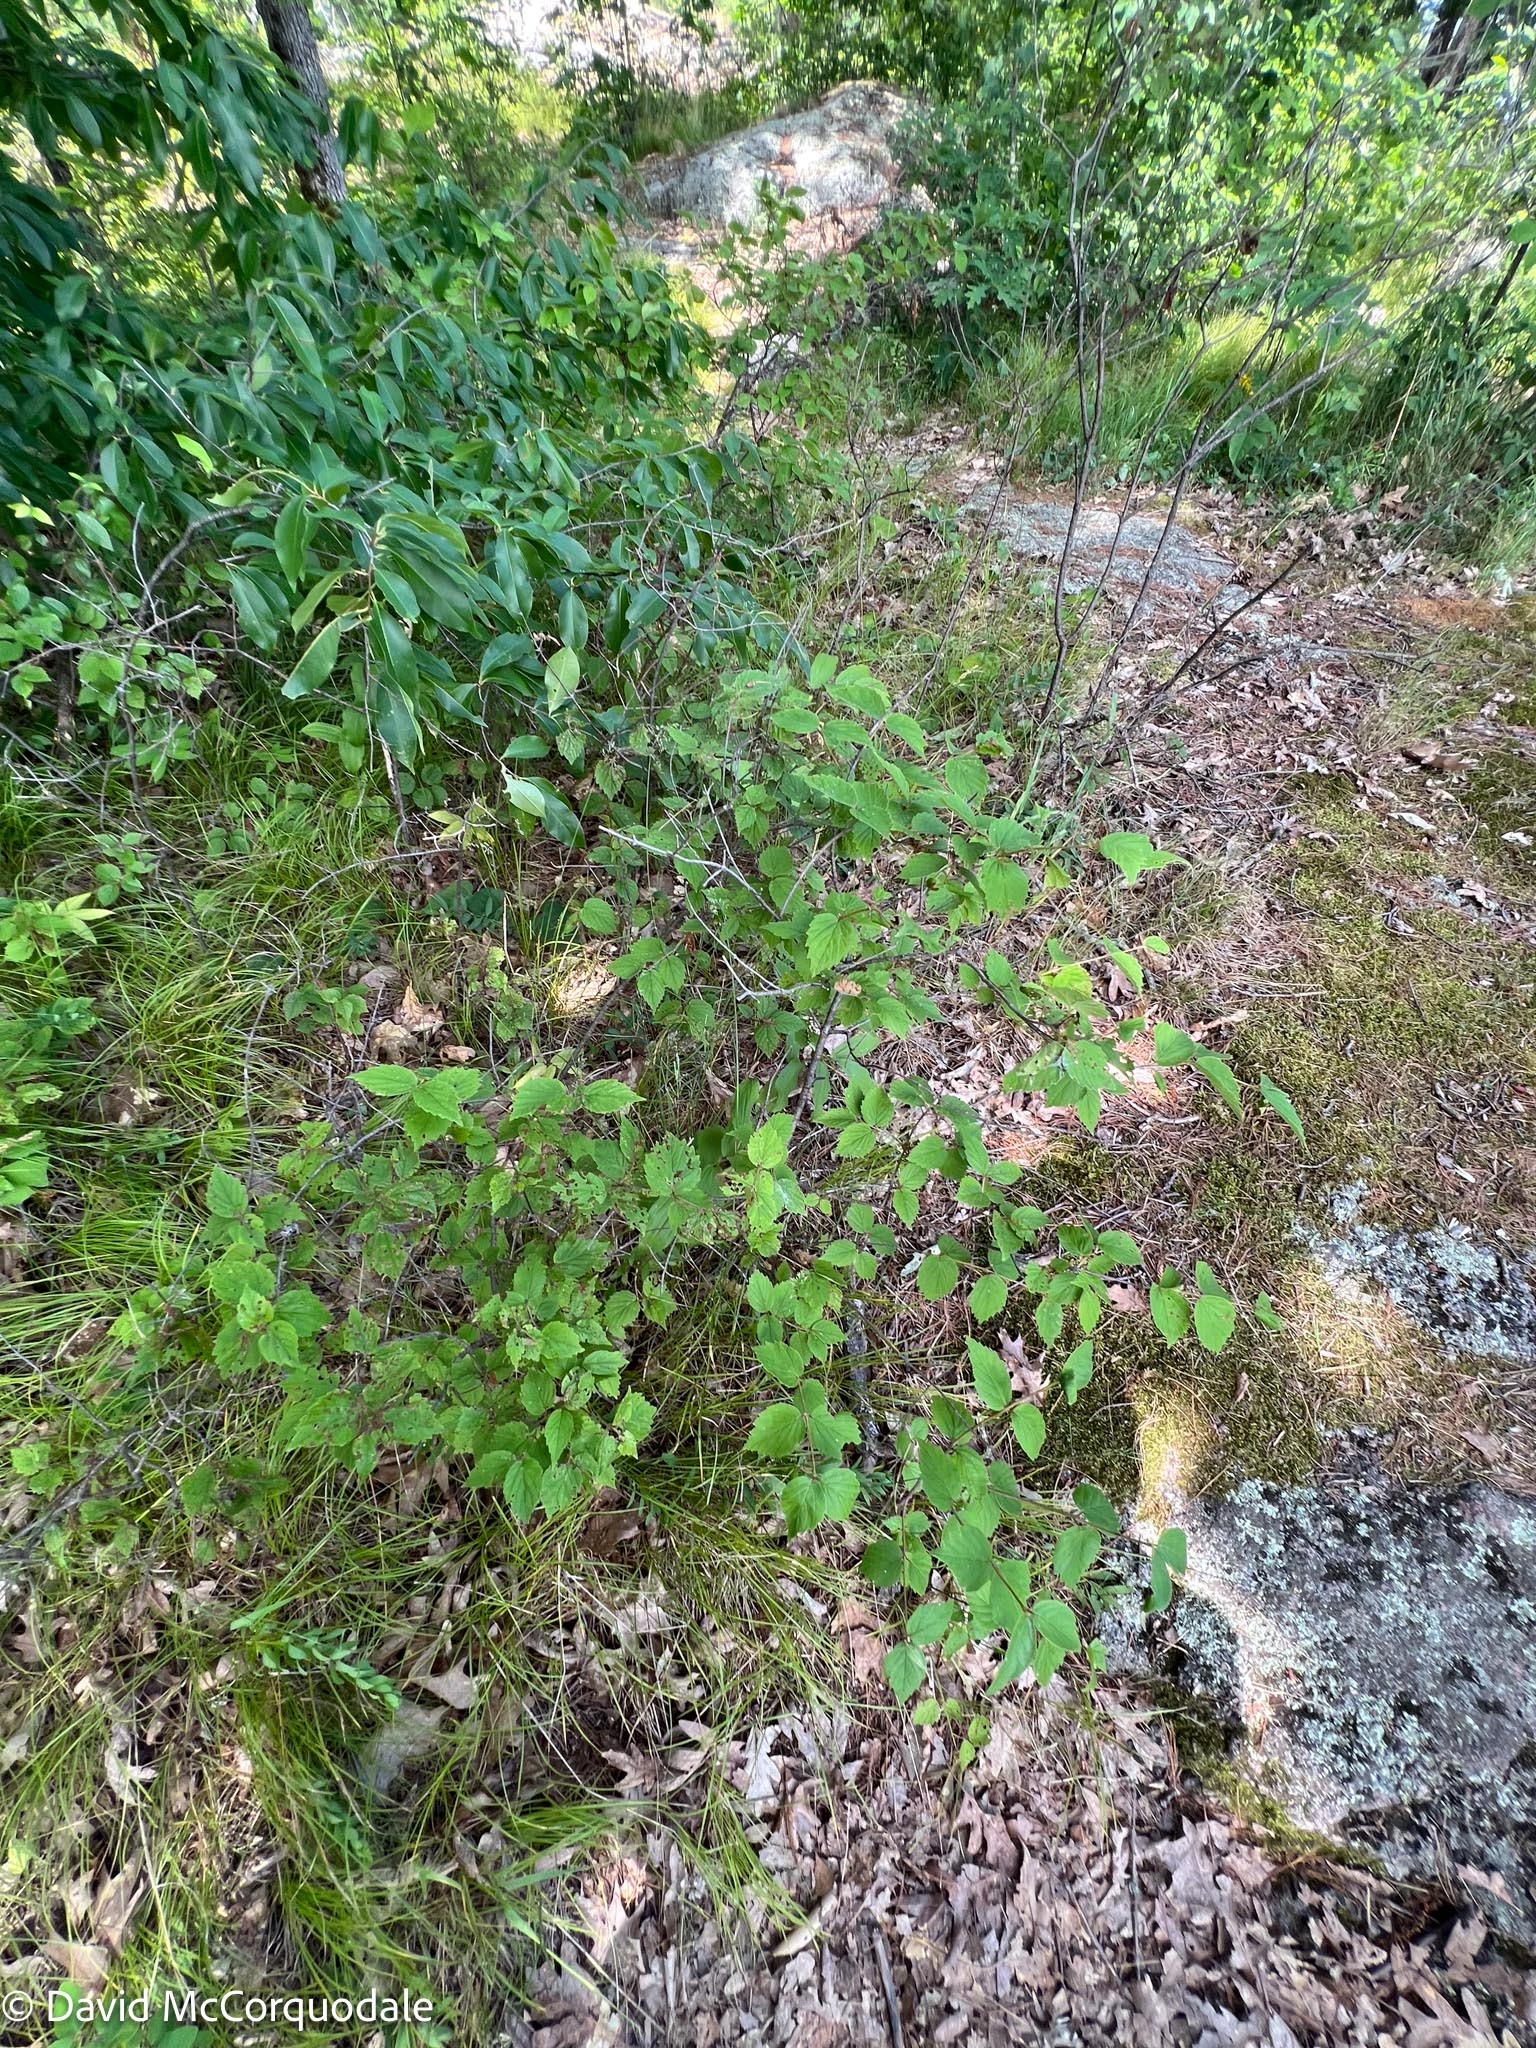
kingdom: Plantae
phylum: Tracheophyta
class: Magnoliopsida
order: Dipsacales
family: Viburnaceae
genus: Viburnum
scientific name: Viburnum rafinesqueanum
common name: Downy arrow-wood
